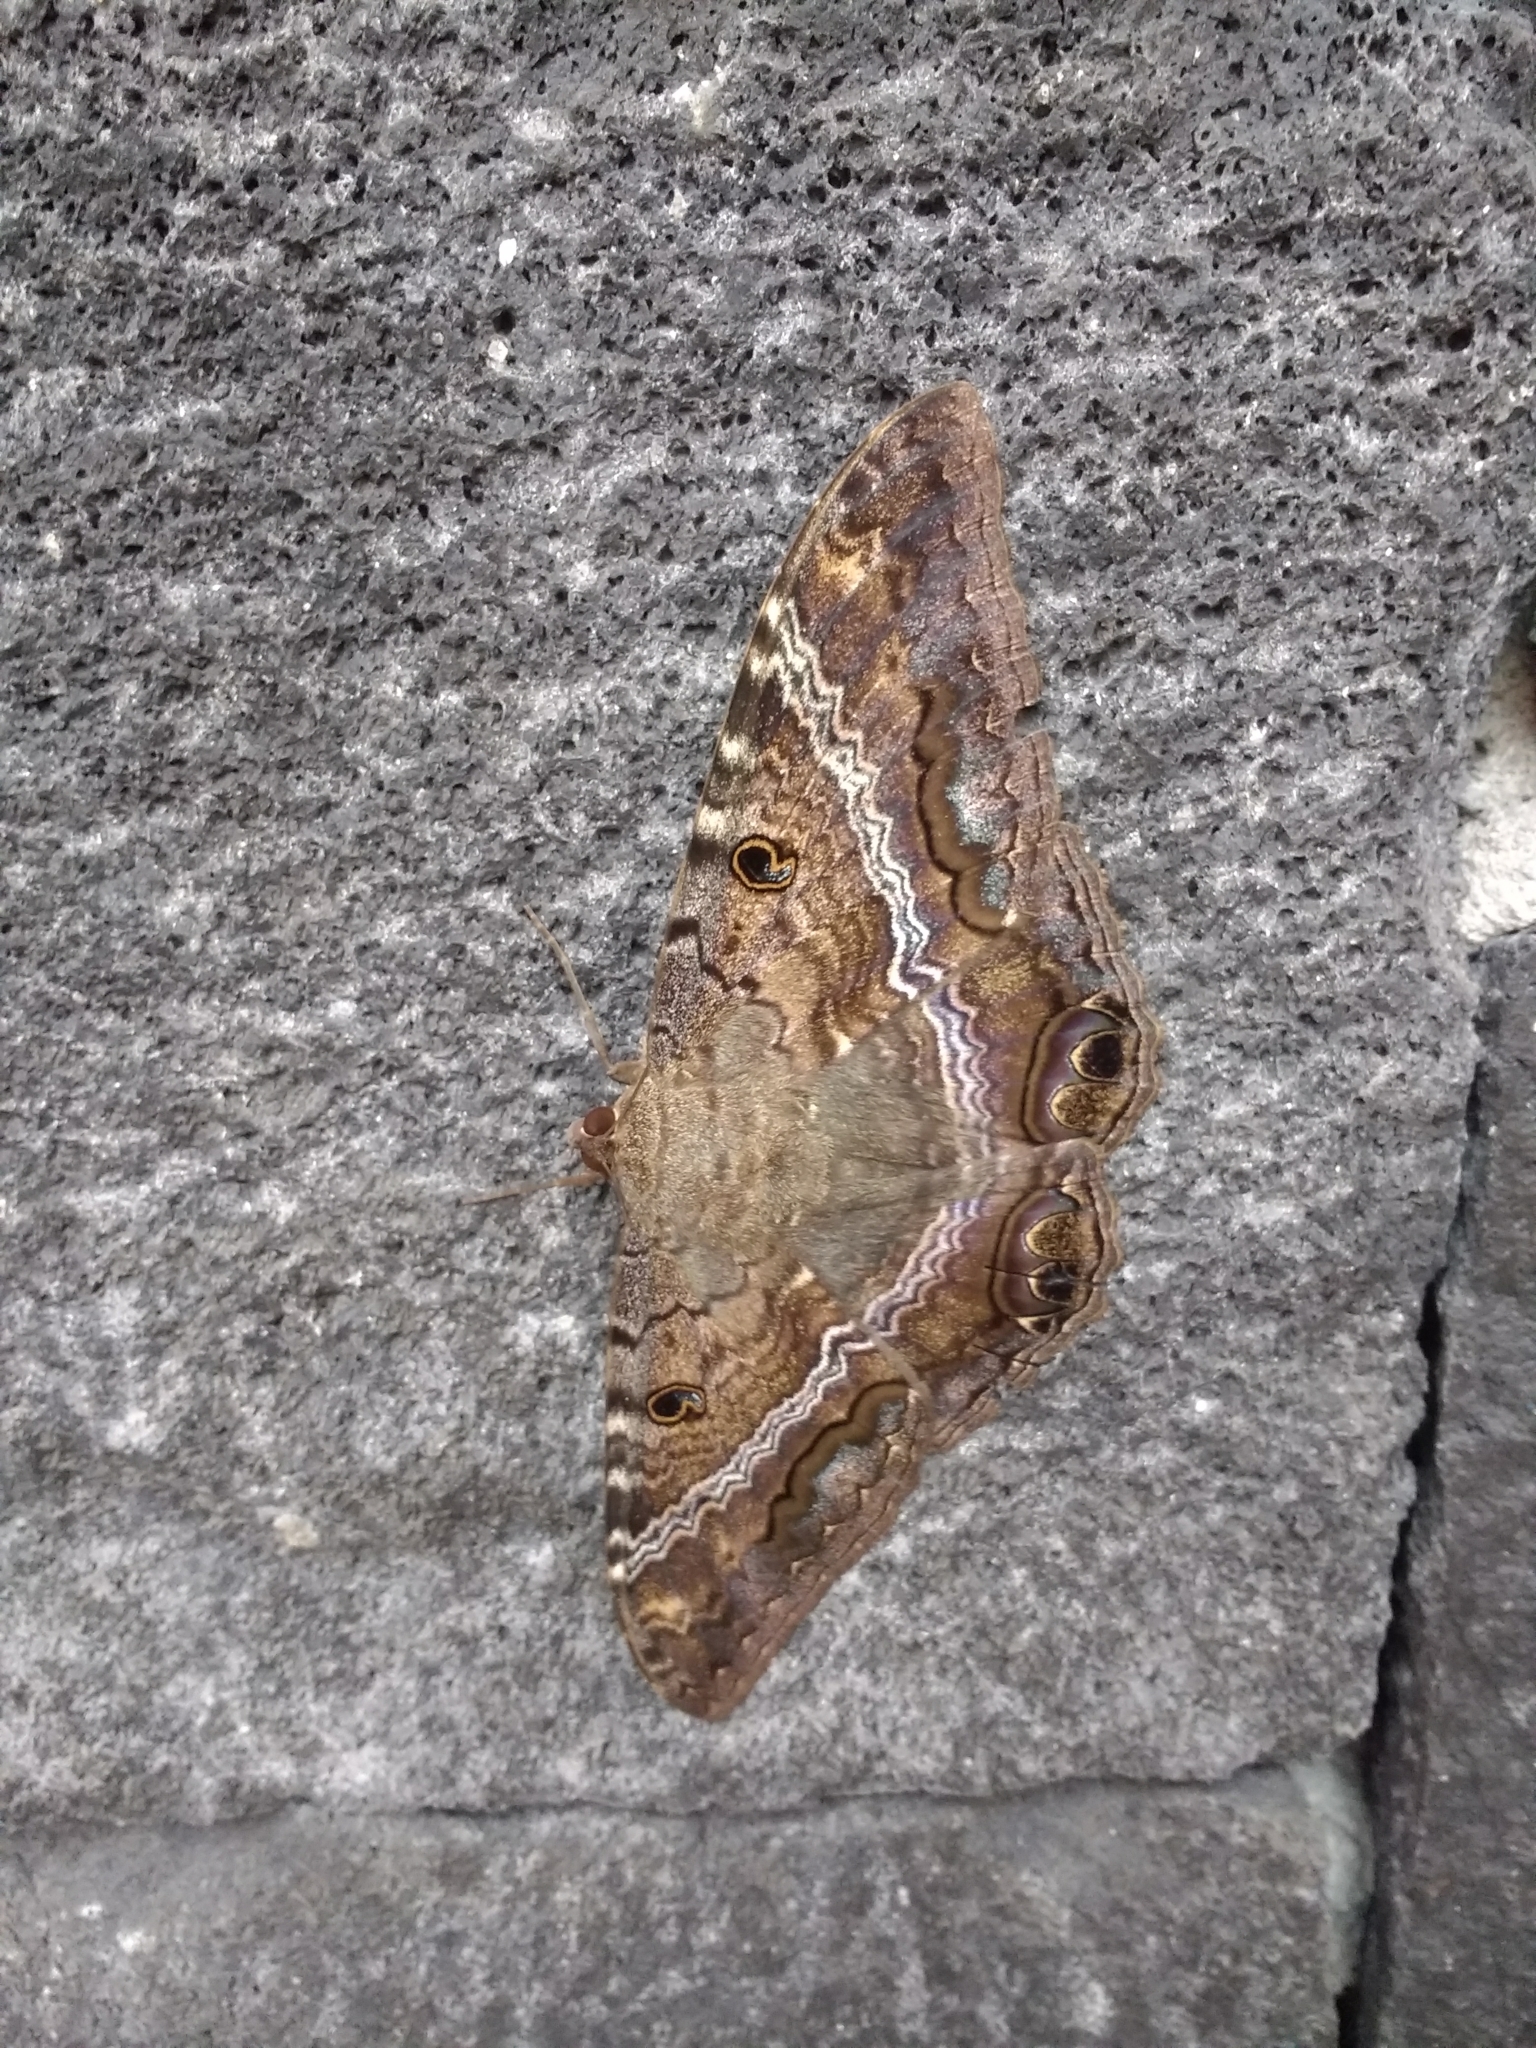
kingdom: Animalia
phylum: Arthropoda
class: Insecta
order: Lepidoptera
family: Erebidae
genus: Ascalapha
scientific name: Ascalapha odorata
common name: Black witch
